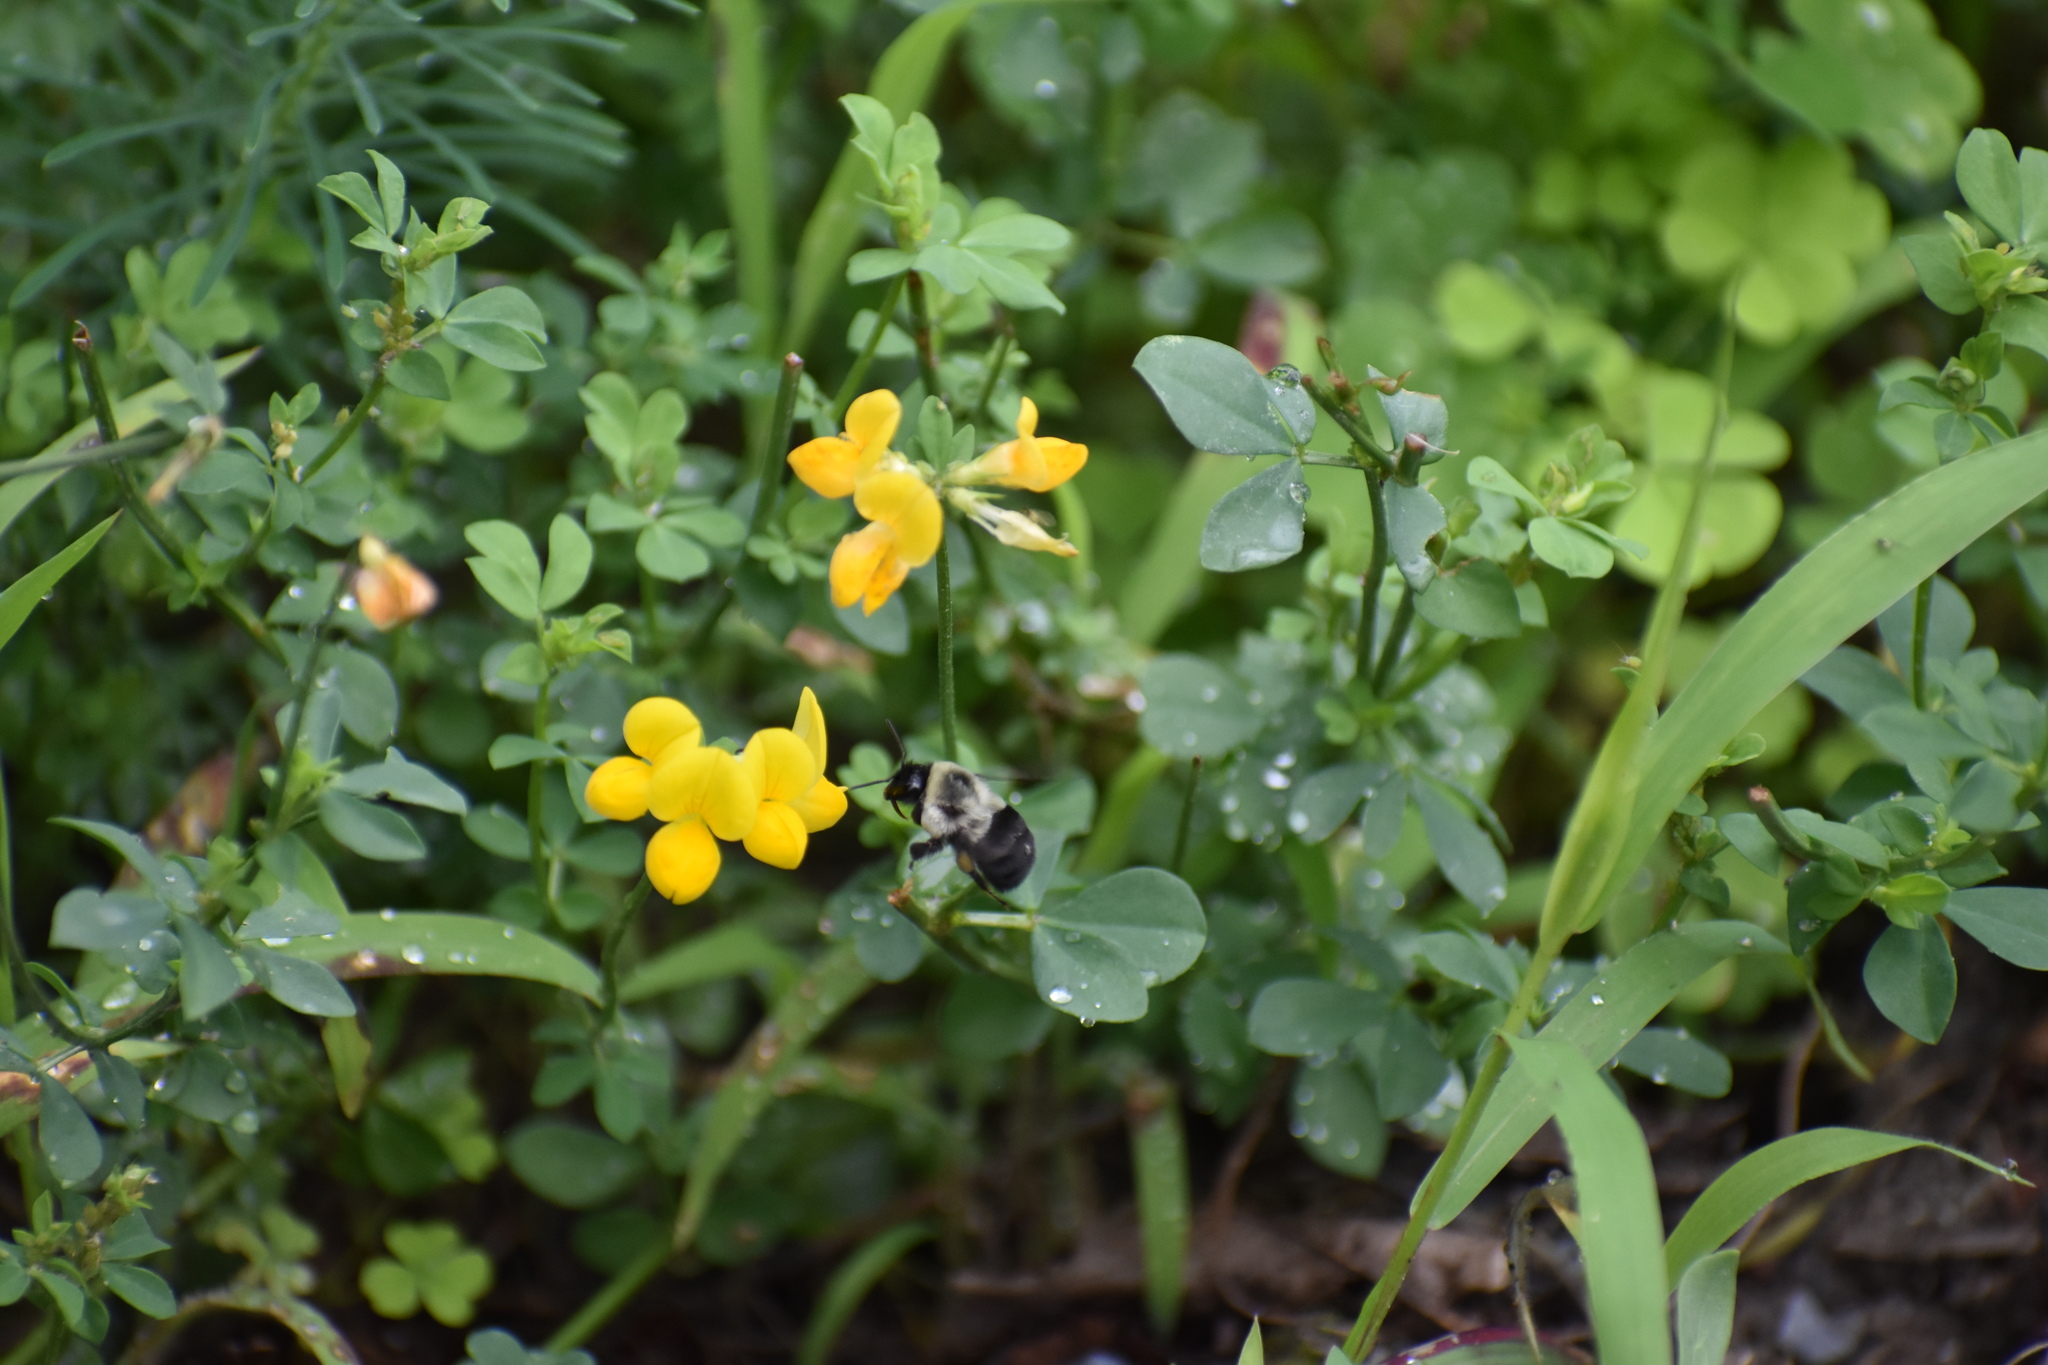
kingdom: Plantae
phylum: Tracheophyta
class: Magnoliopsida
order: Fabales
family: Fabaceae
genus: Lotus
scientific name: Lotus corniculatus
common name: Common bird's-foot-trefoil
